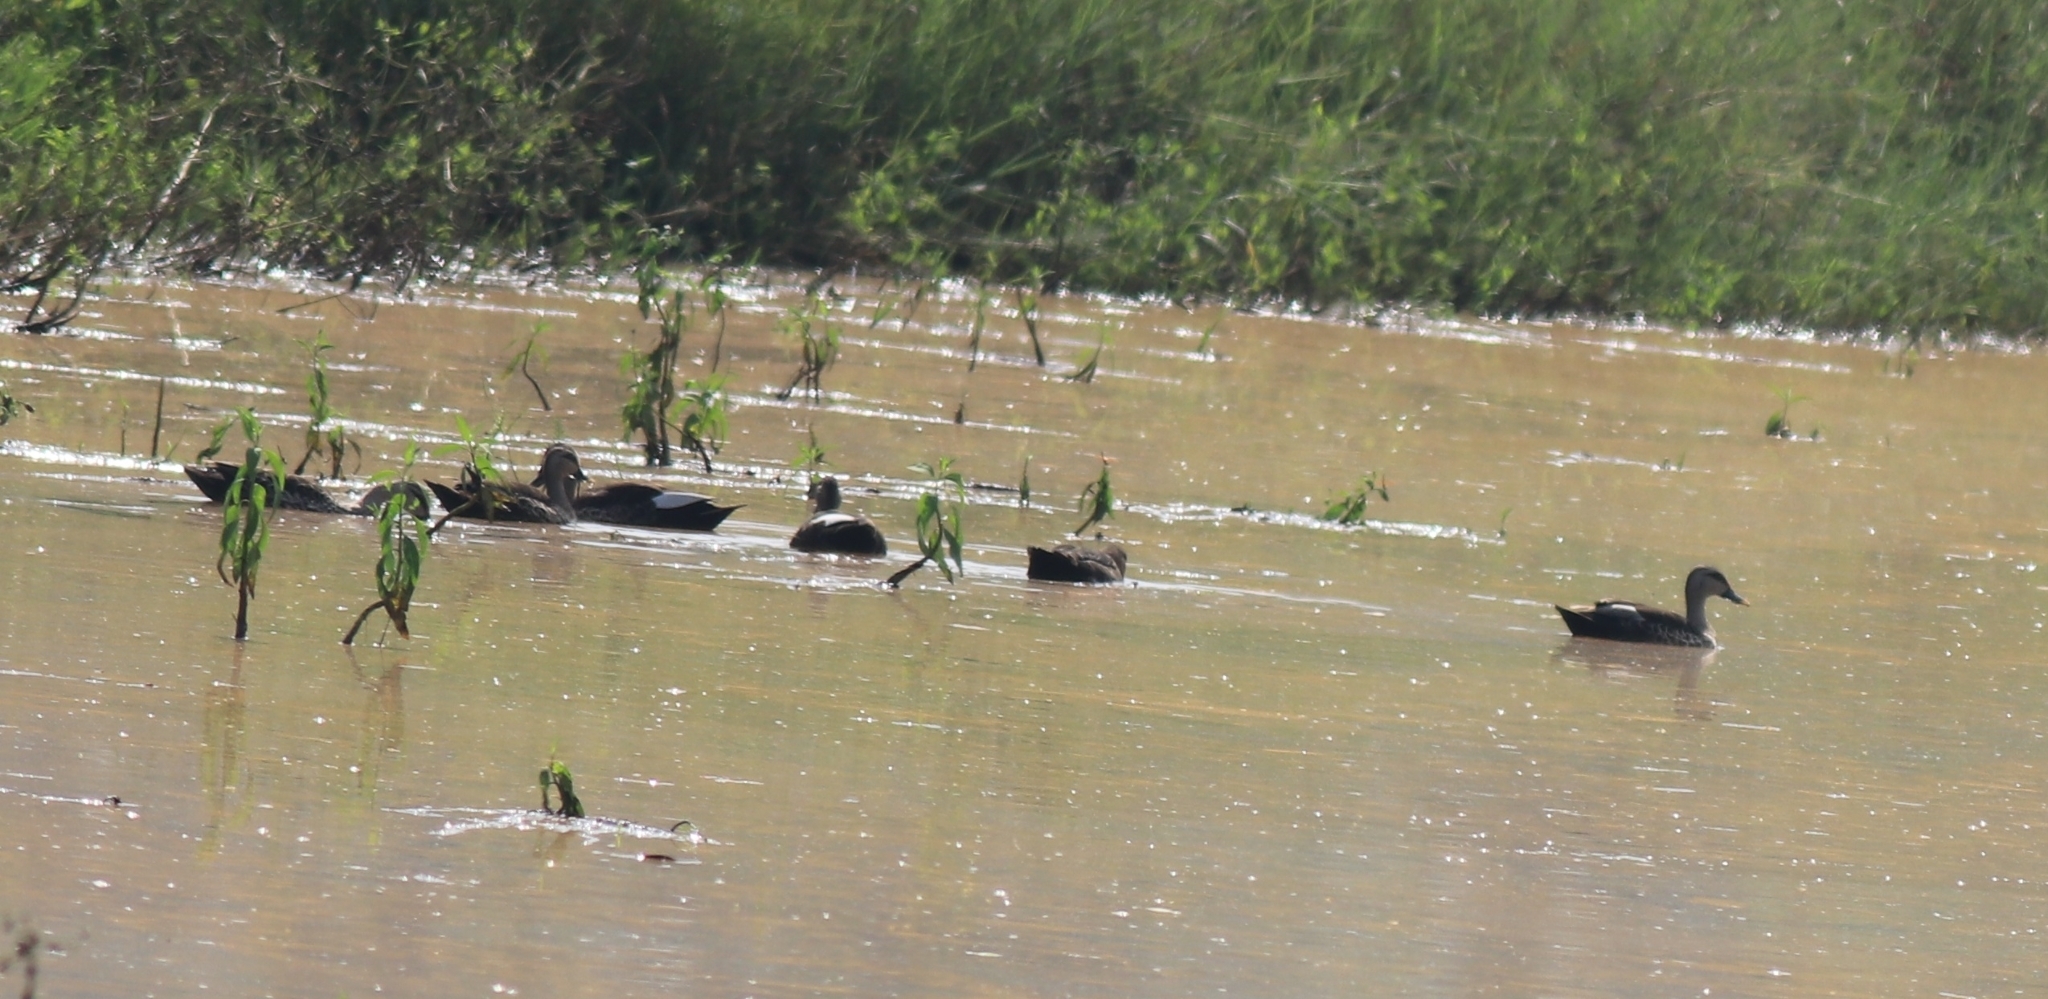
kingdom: Animalia
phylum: Chordata
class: Aves
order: Anseriformes
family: Anatidae
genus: Anas
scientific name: Anas poecilorhyncha
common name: Indian spot-billed duck
